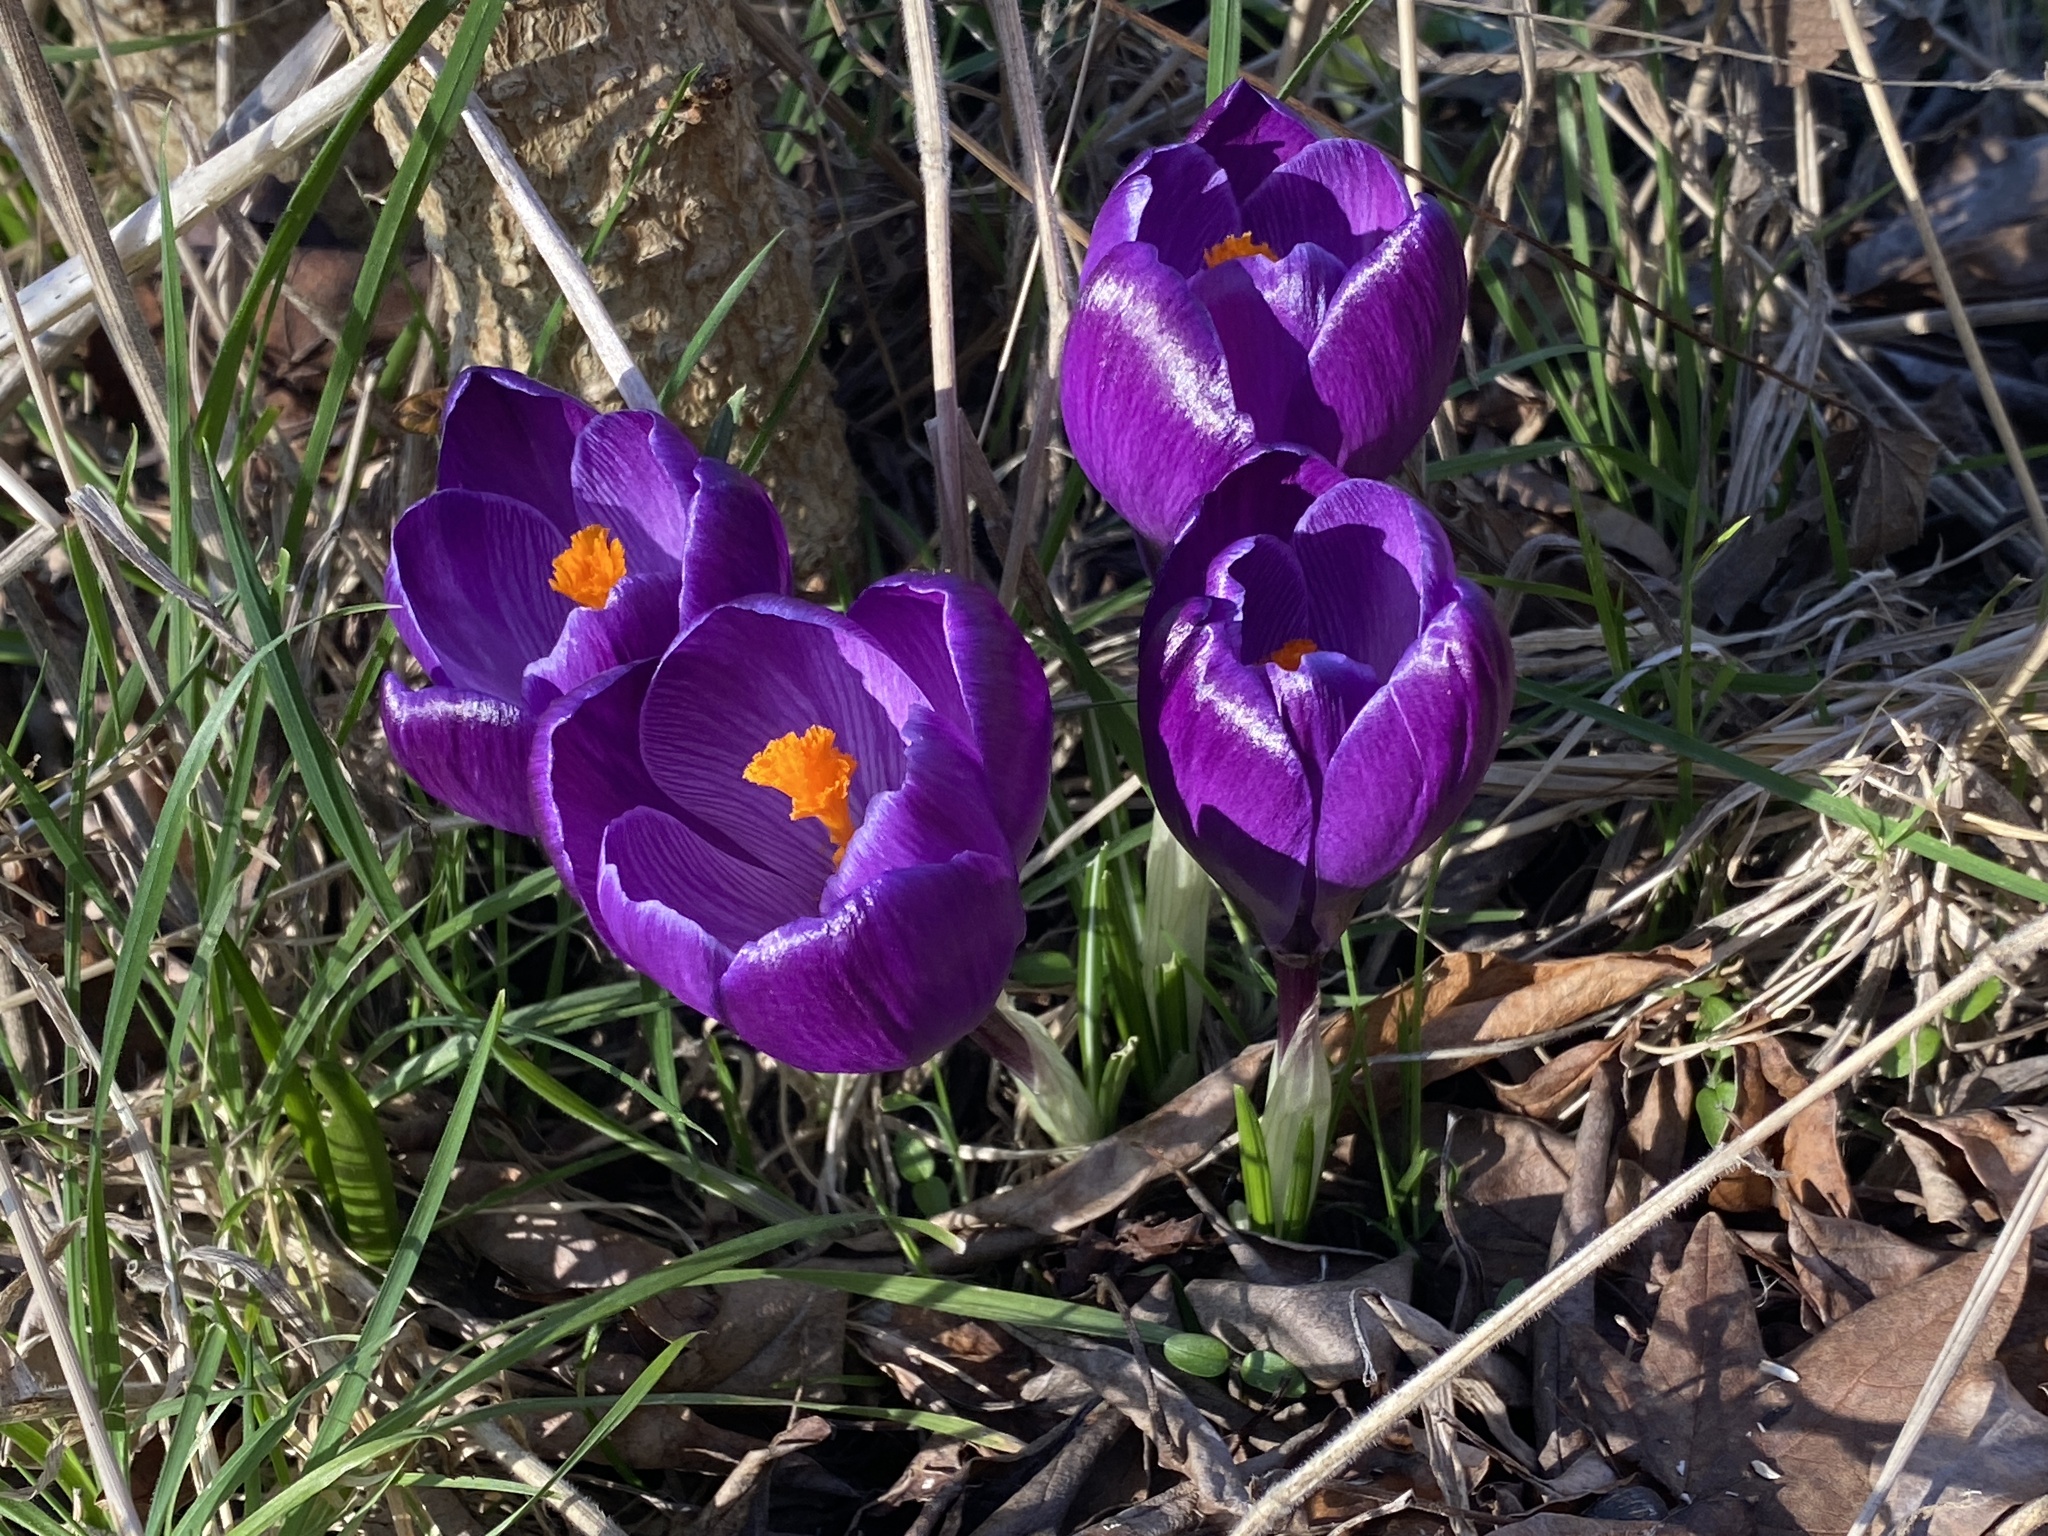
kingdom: Plantae
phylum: Tracheophyta
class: Liliopsida
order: Asparagales
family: Iridaceae
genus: Crocus
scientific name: Crocus neapolitanus
